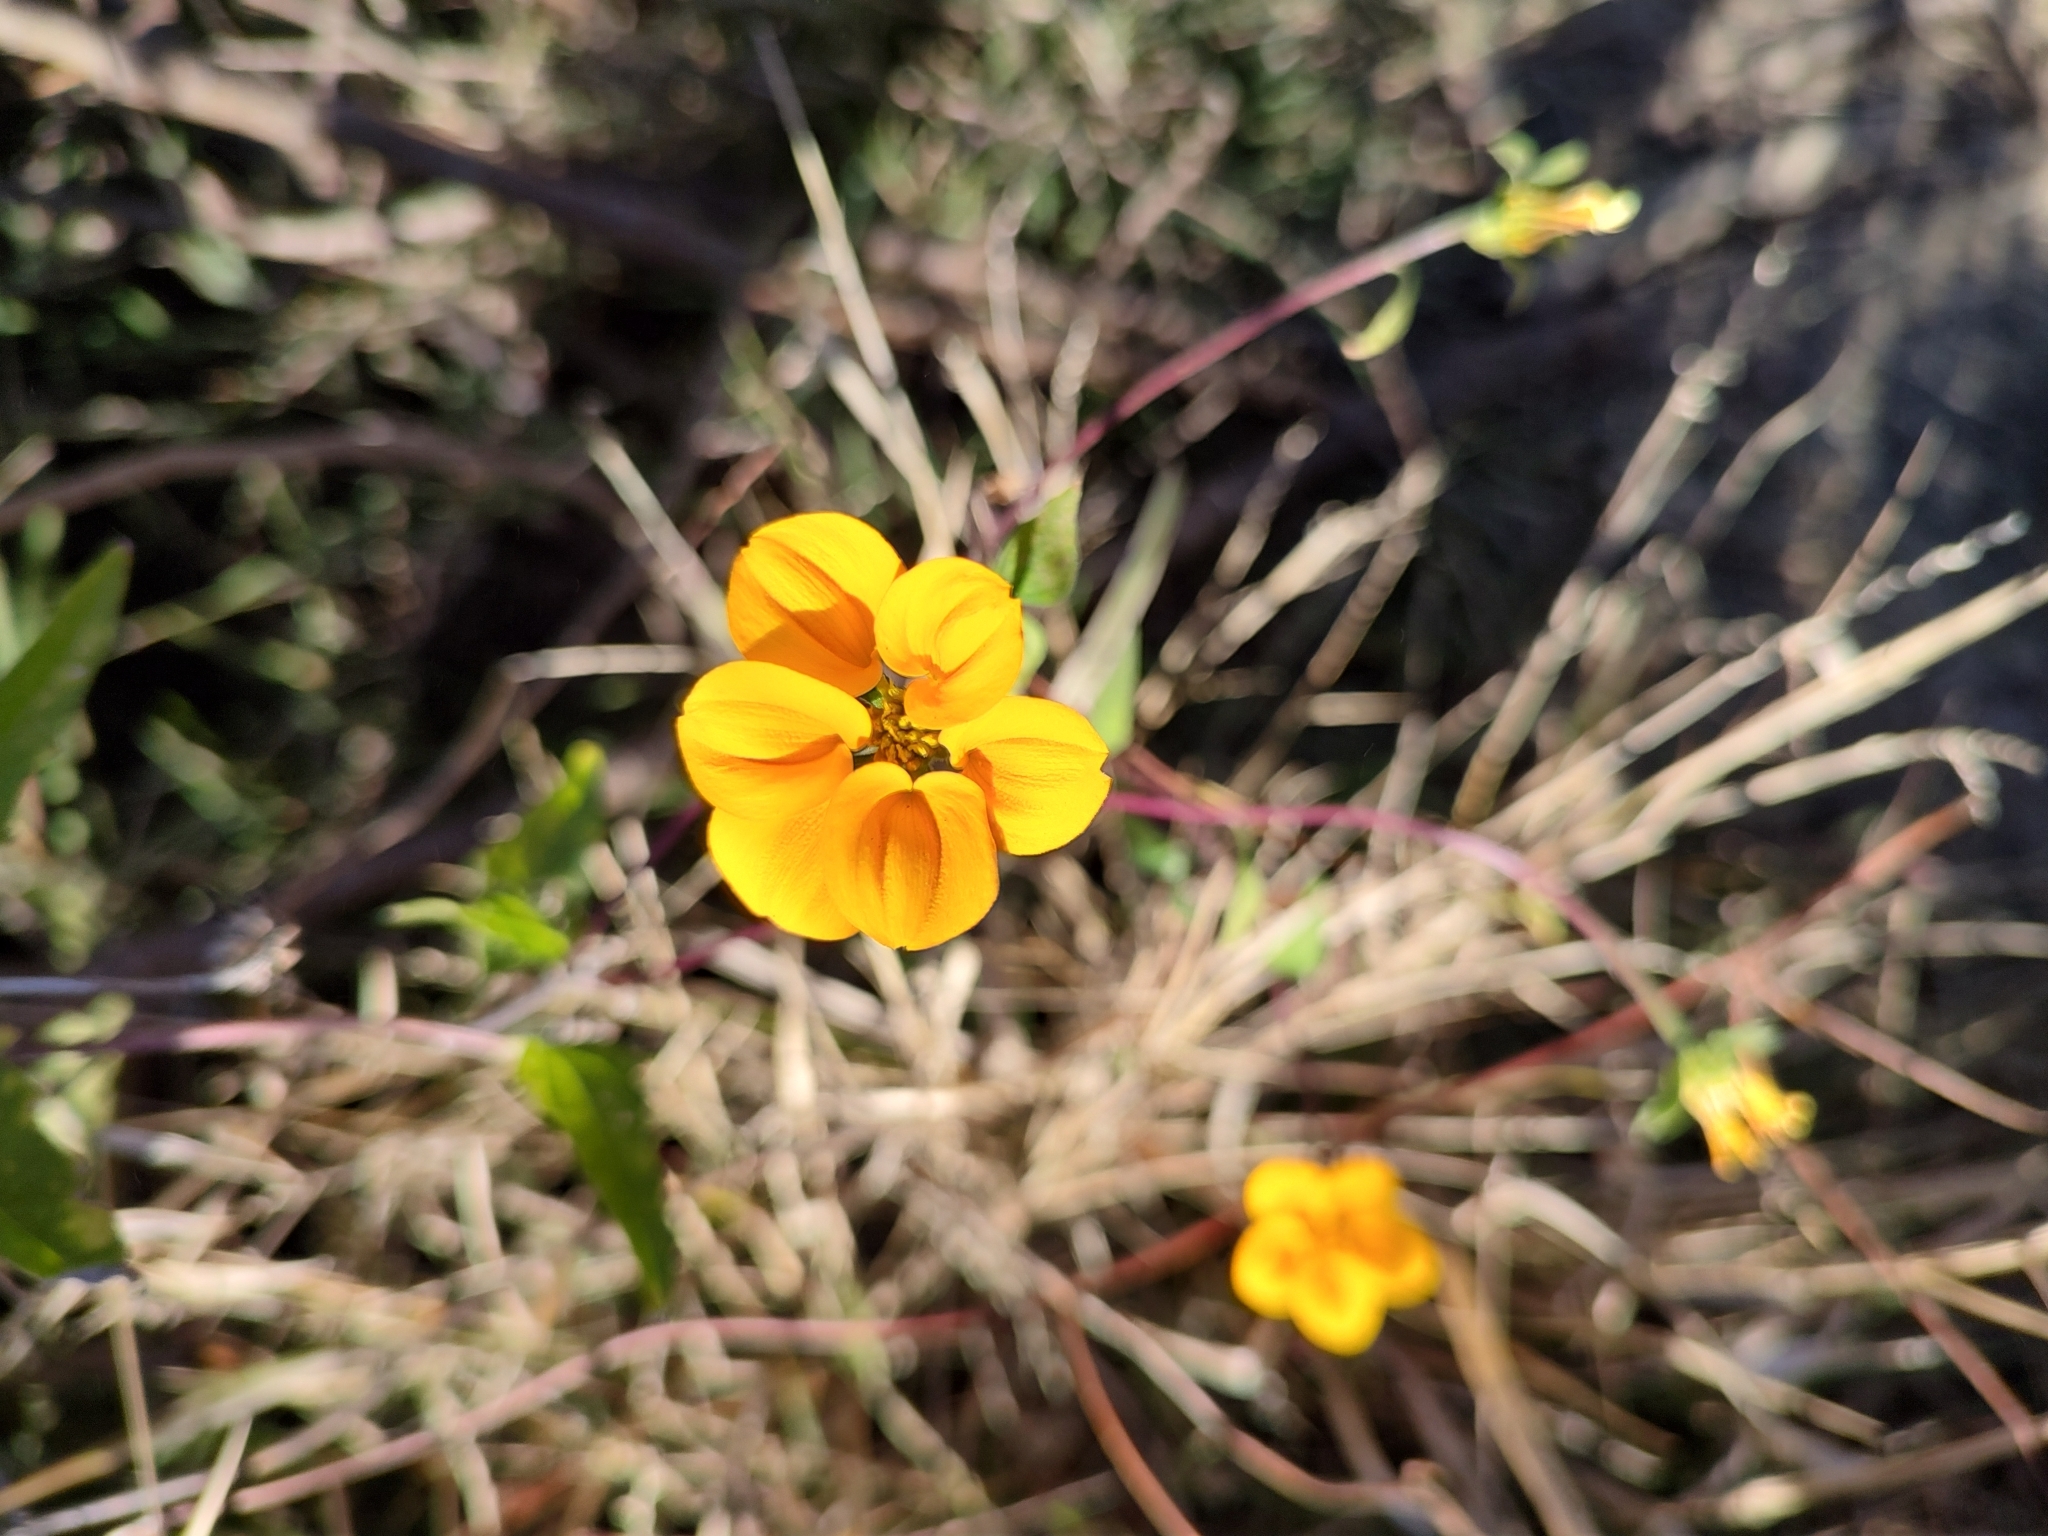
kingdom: Plantae
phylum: Tracheophyta
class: Magnoliopsida
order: Asterales
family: Asteraceae
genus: Sclerocarpus
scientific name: Sclerocarpus divaricatus
